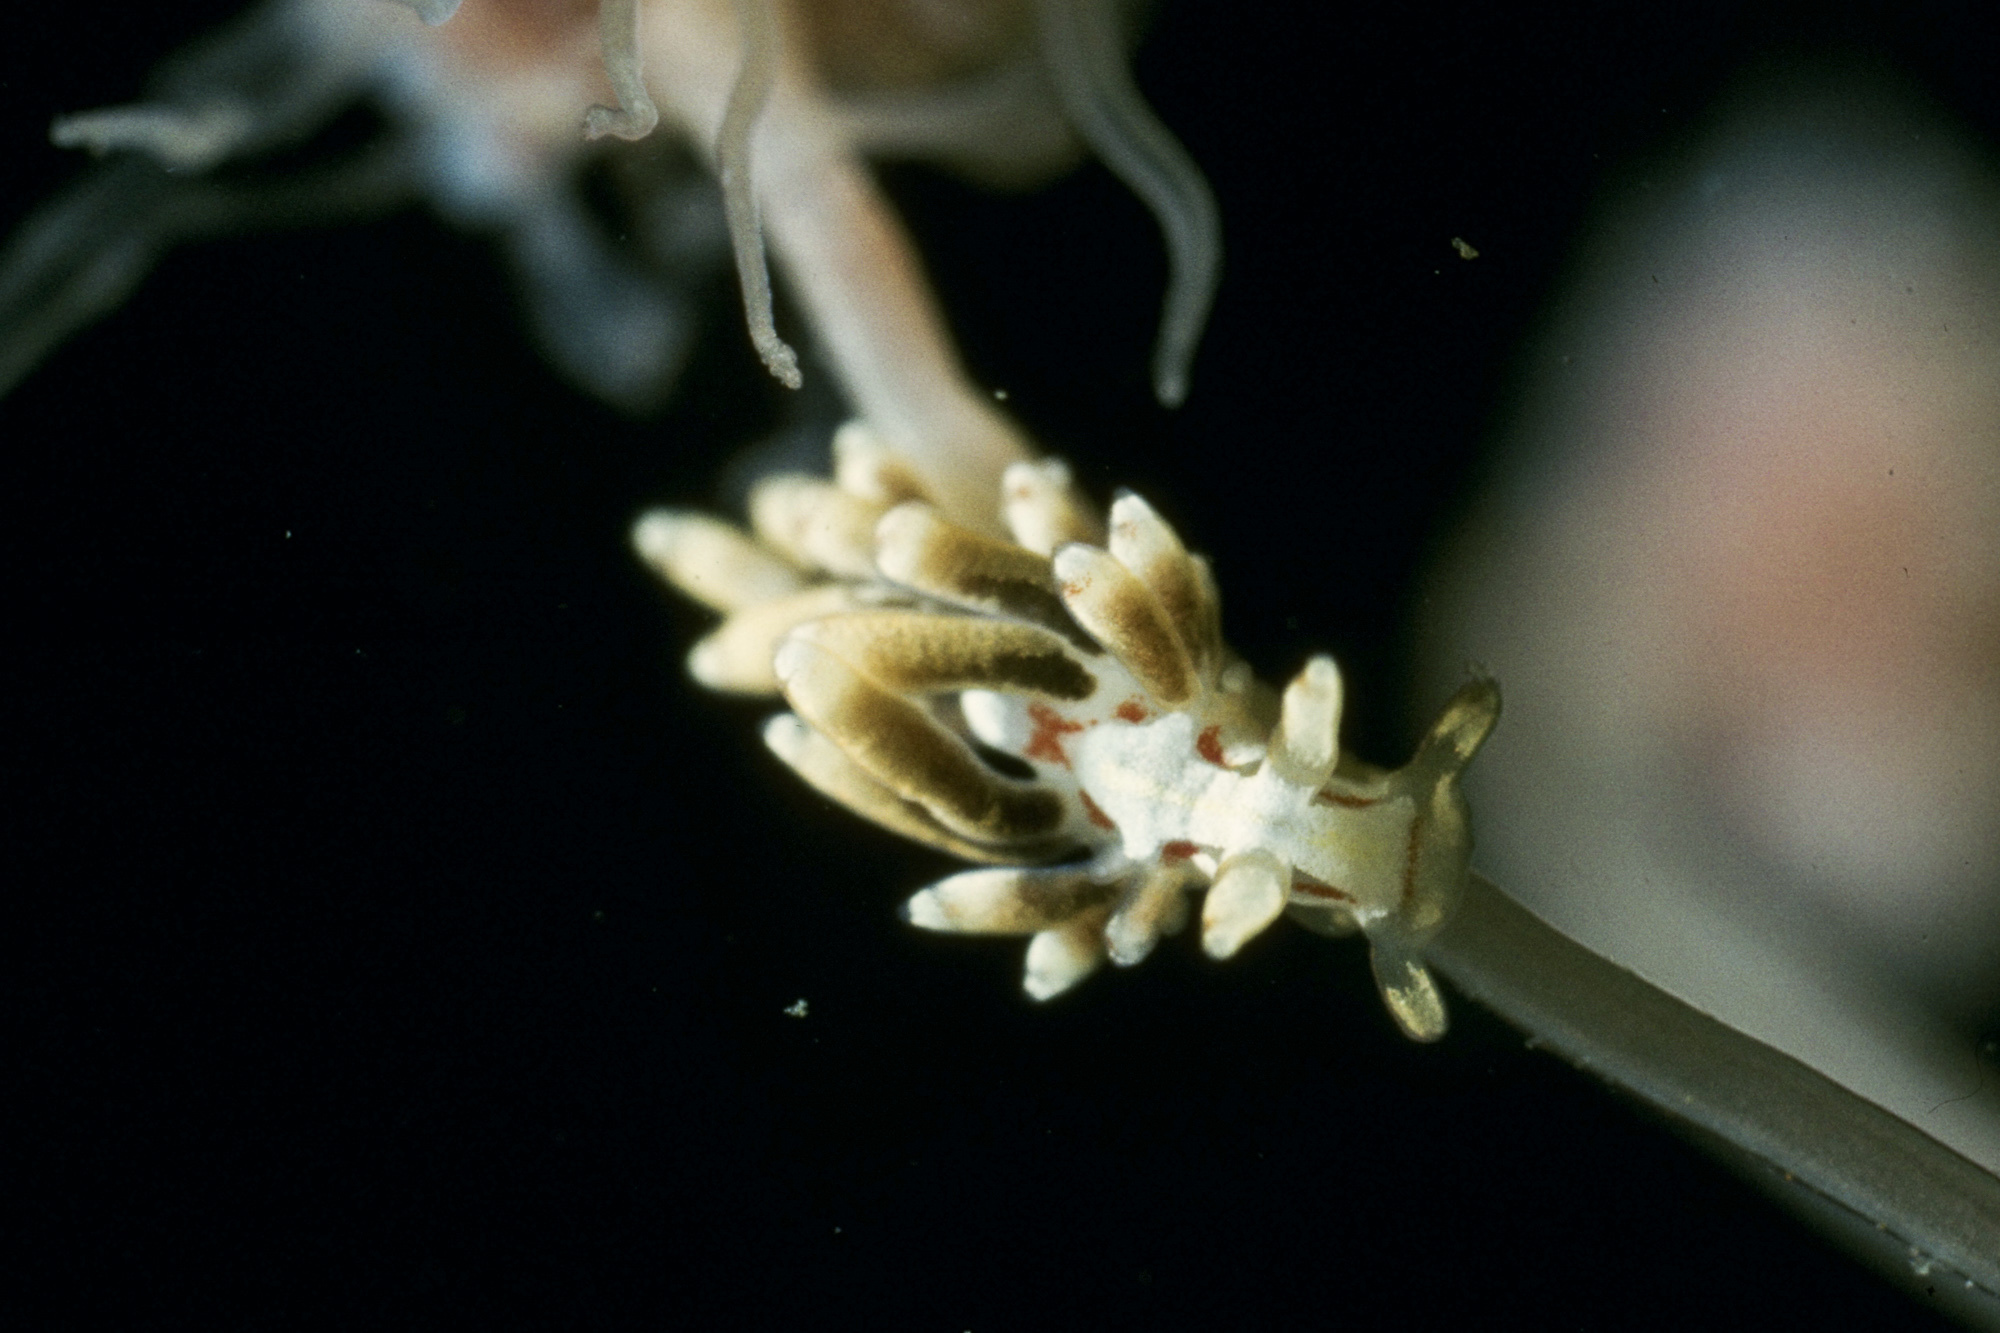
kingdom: Animalia
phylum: Mollusca
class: Gastropoda
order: Nudibranchia
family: Trinchesiidae
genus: Trinchesia
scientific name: Trinchesia genovae
